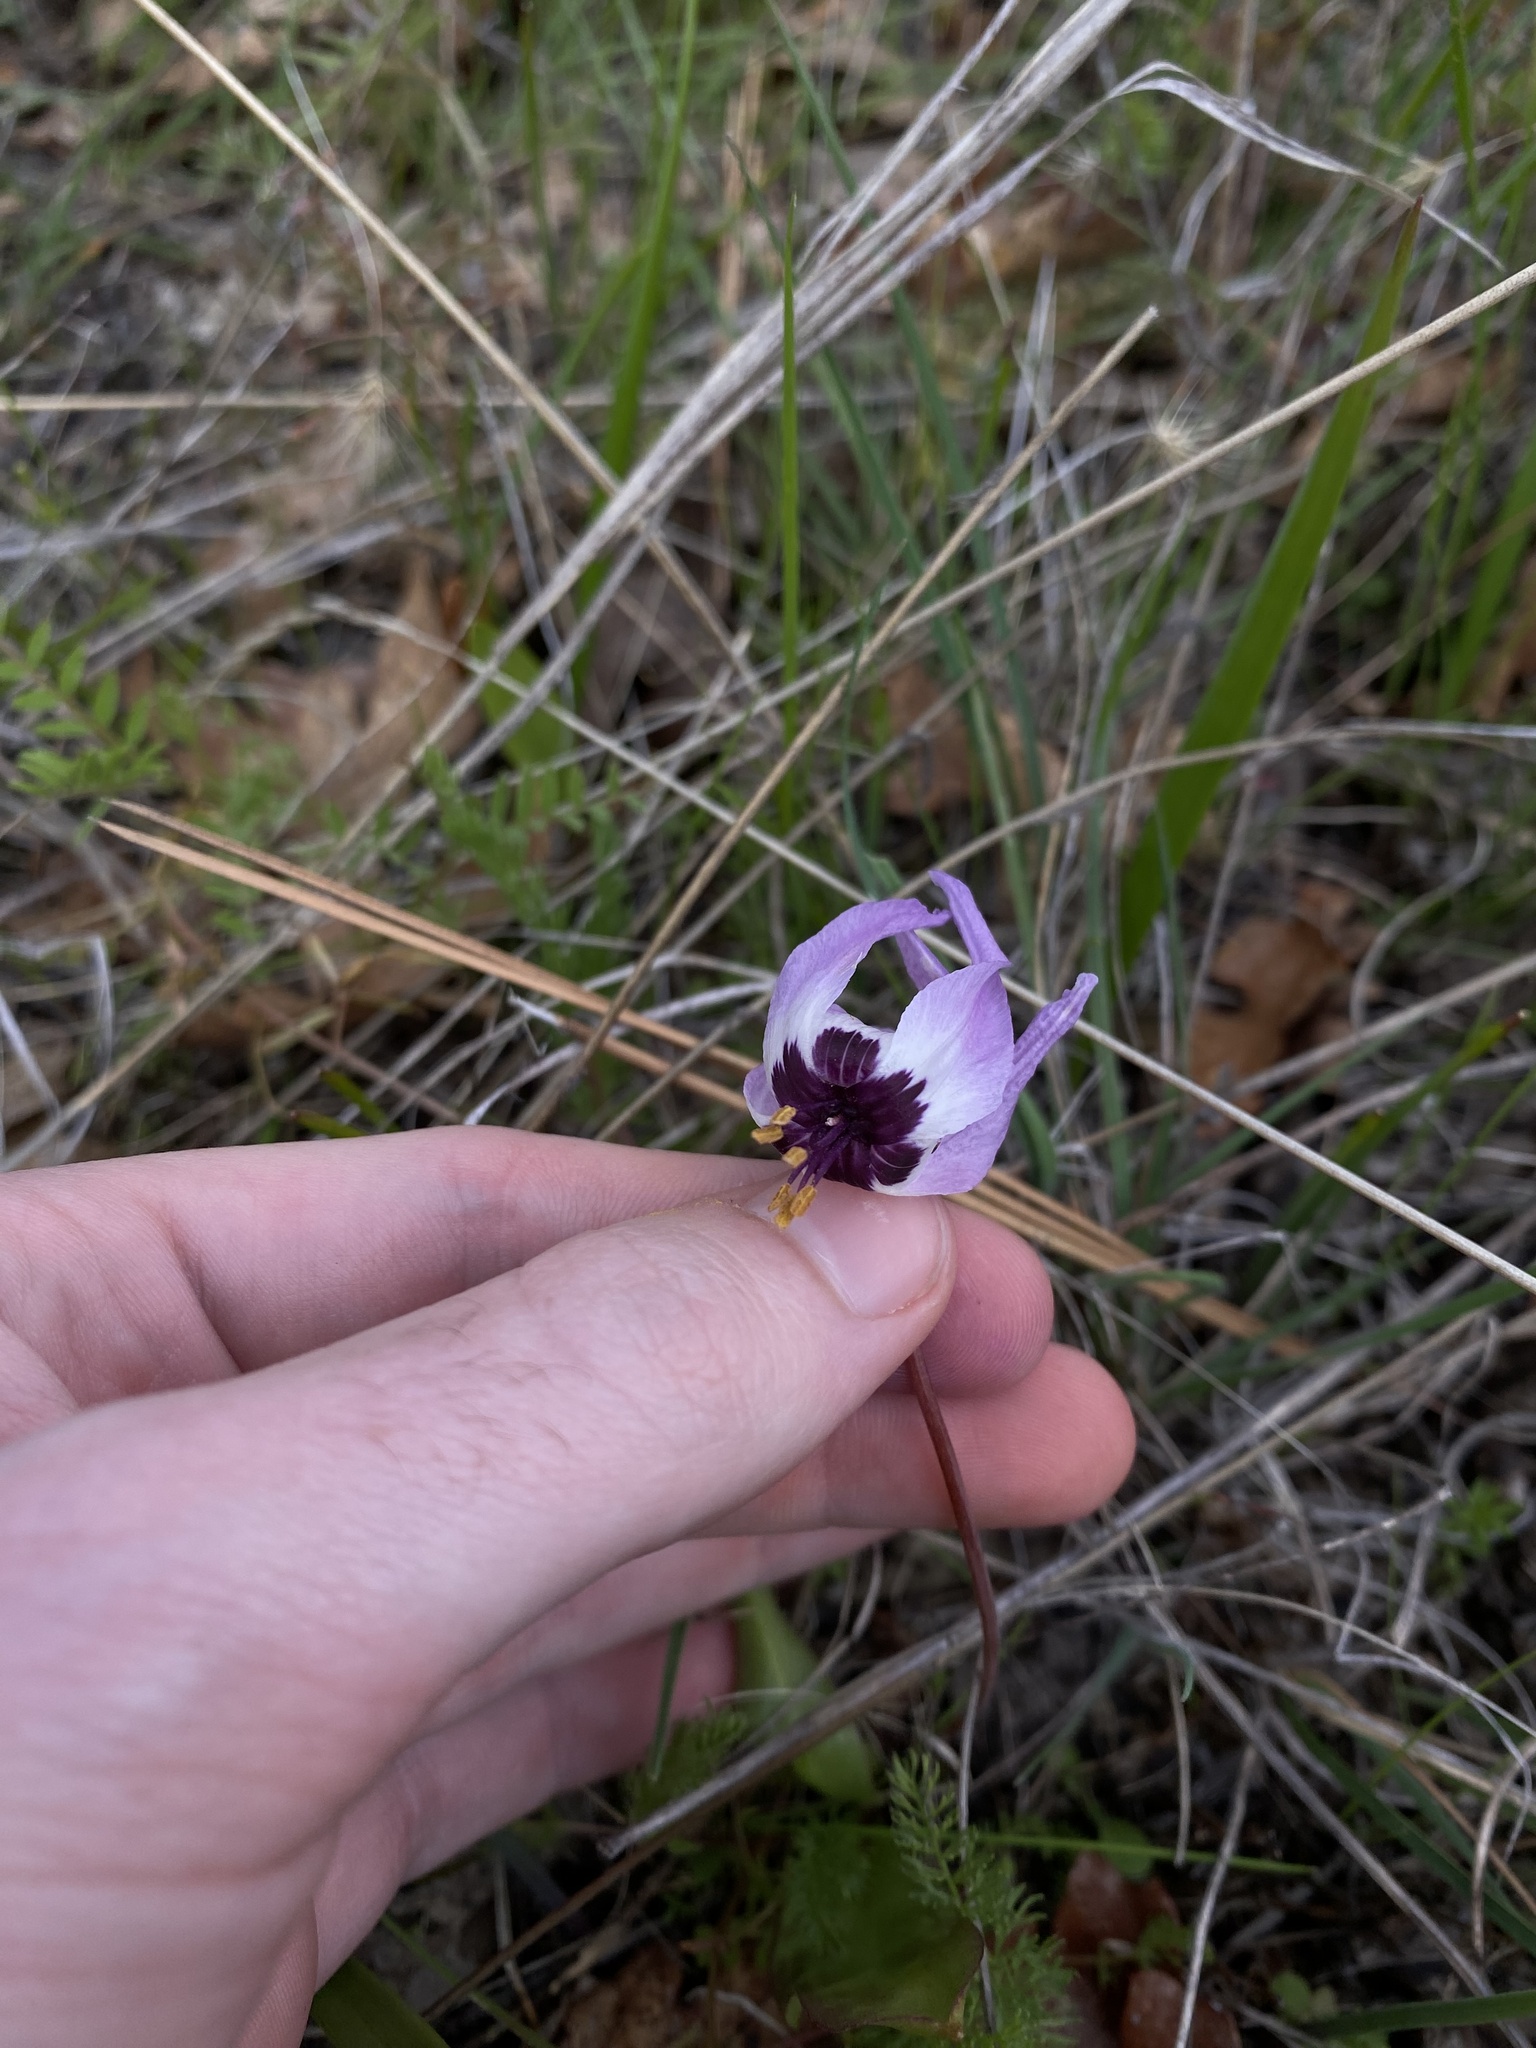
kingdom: Plantae
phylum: Tracheophyta
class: Liliopsida
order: Liliales
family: Liliaceae
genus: Erythronium
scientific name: Erythronium hendersonii
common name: Henderson's fawn-lily
